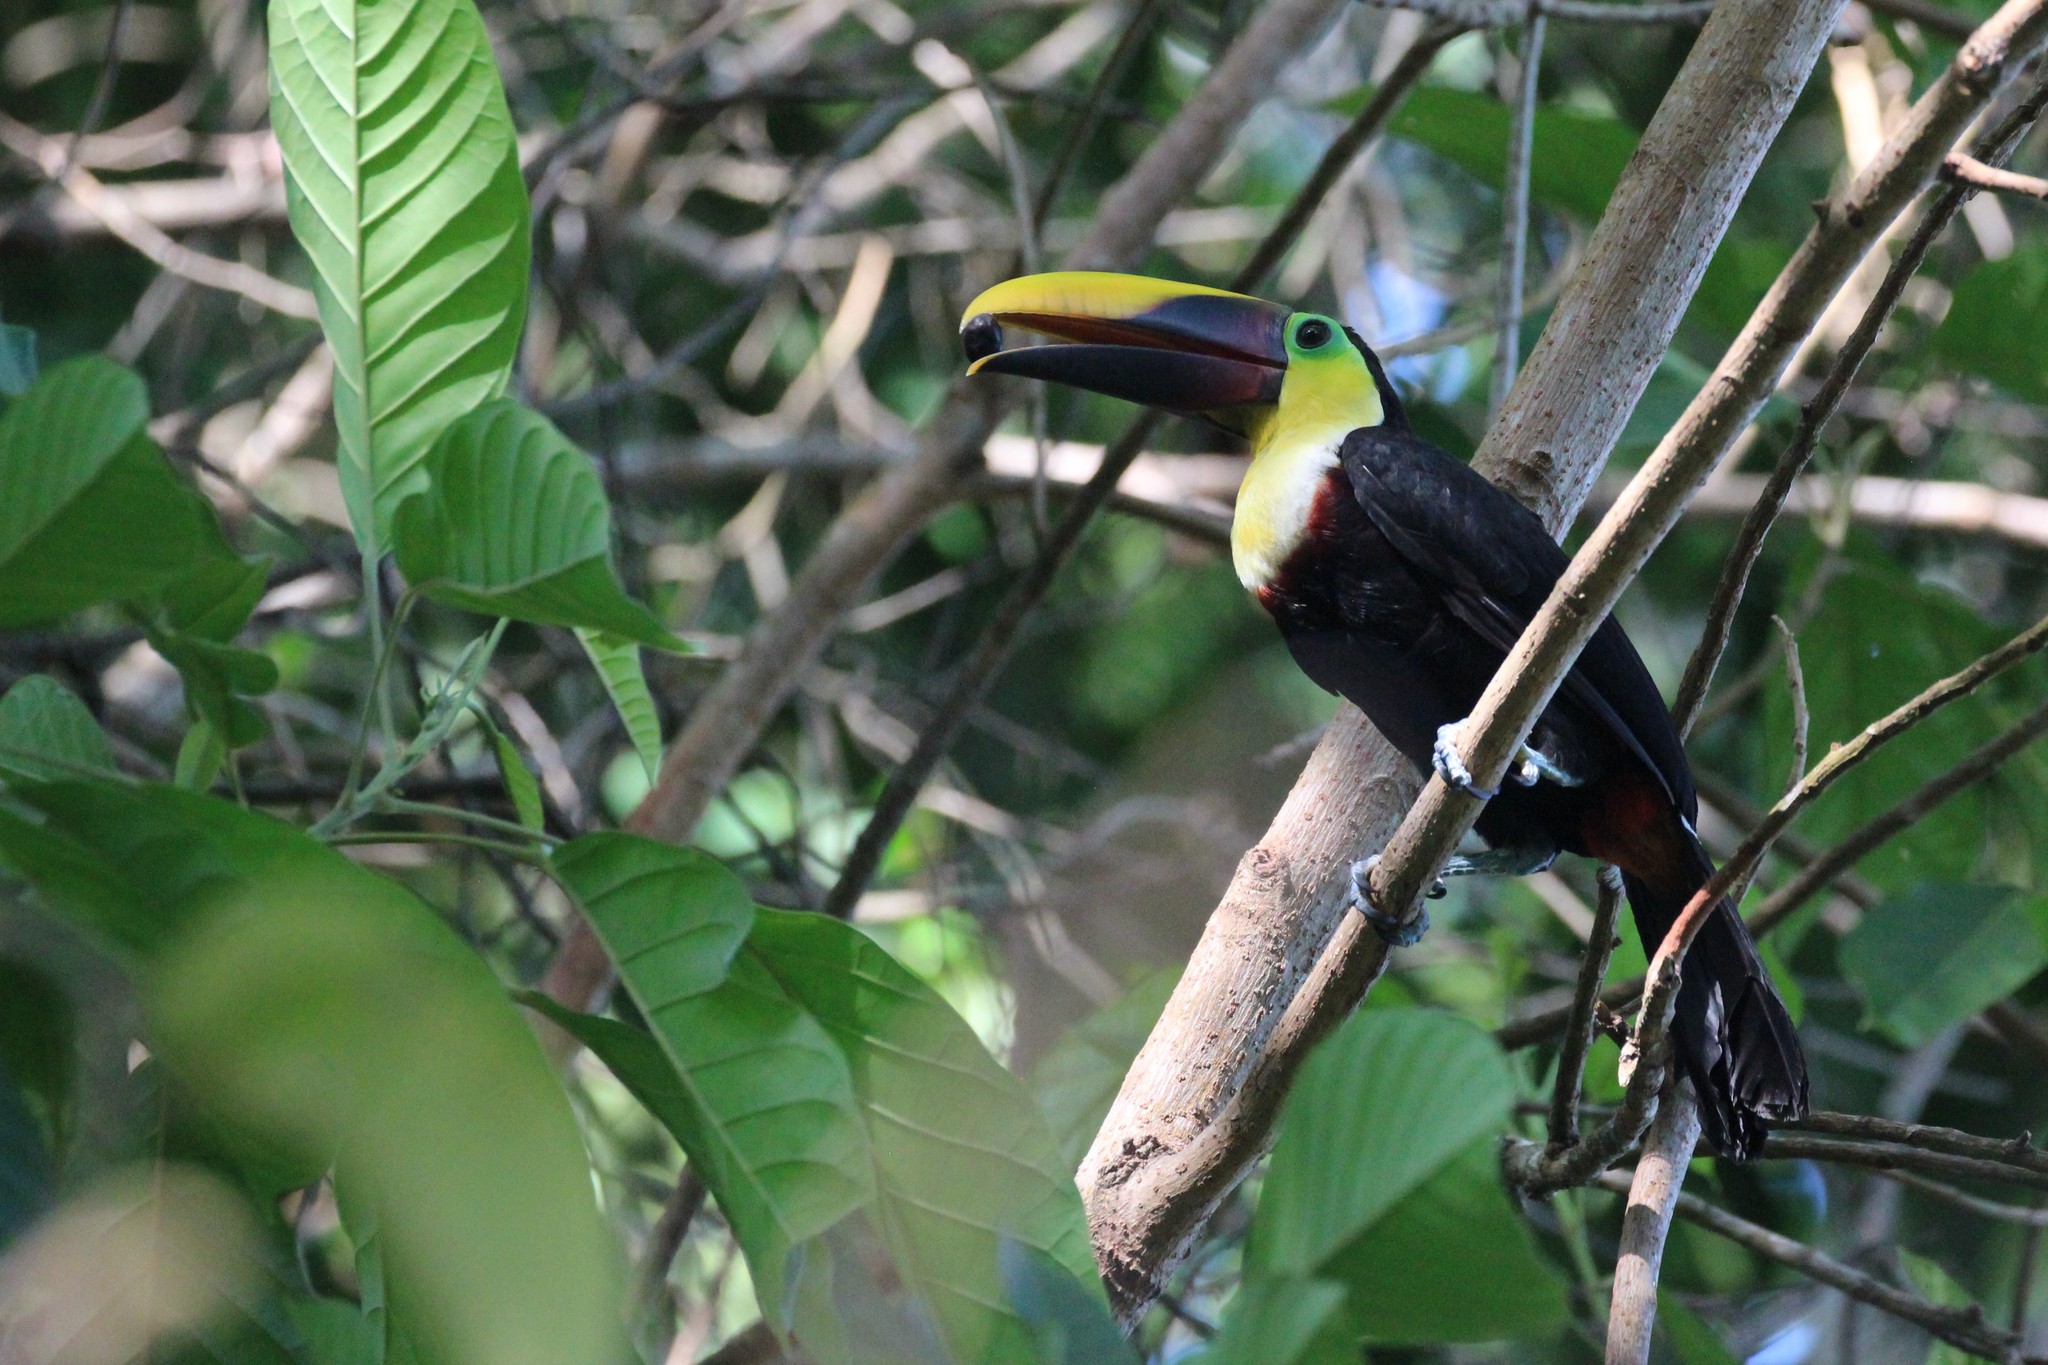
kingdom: Animalia
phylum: Chordata
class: Aves
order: Piciformes
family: Ramphastidae
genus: Ramphastos
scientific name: Ramphastos ambiguus
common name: Yellow-throated toucan
